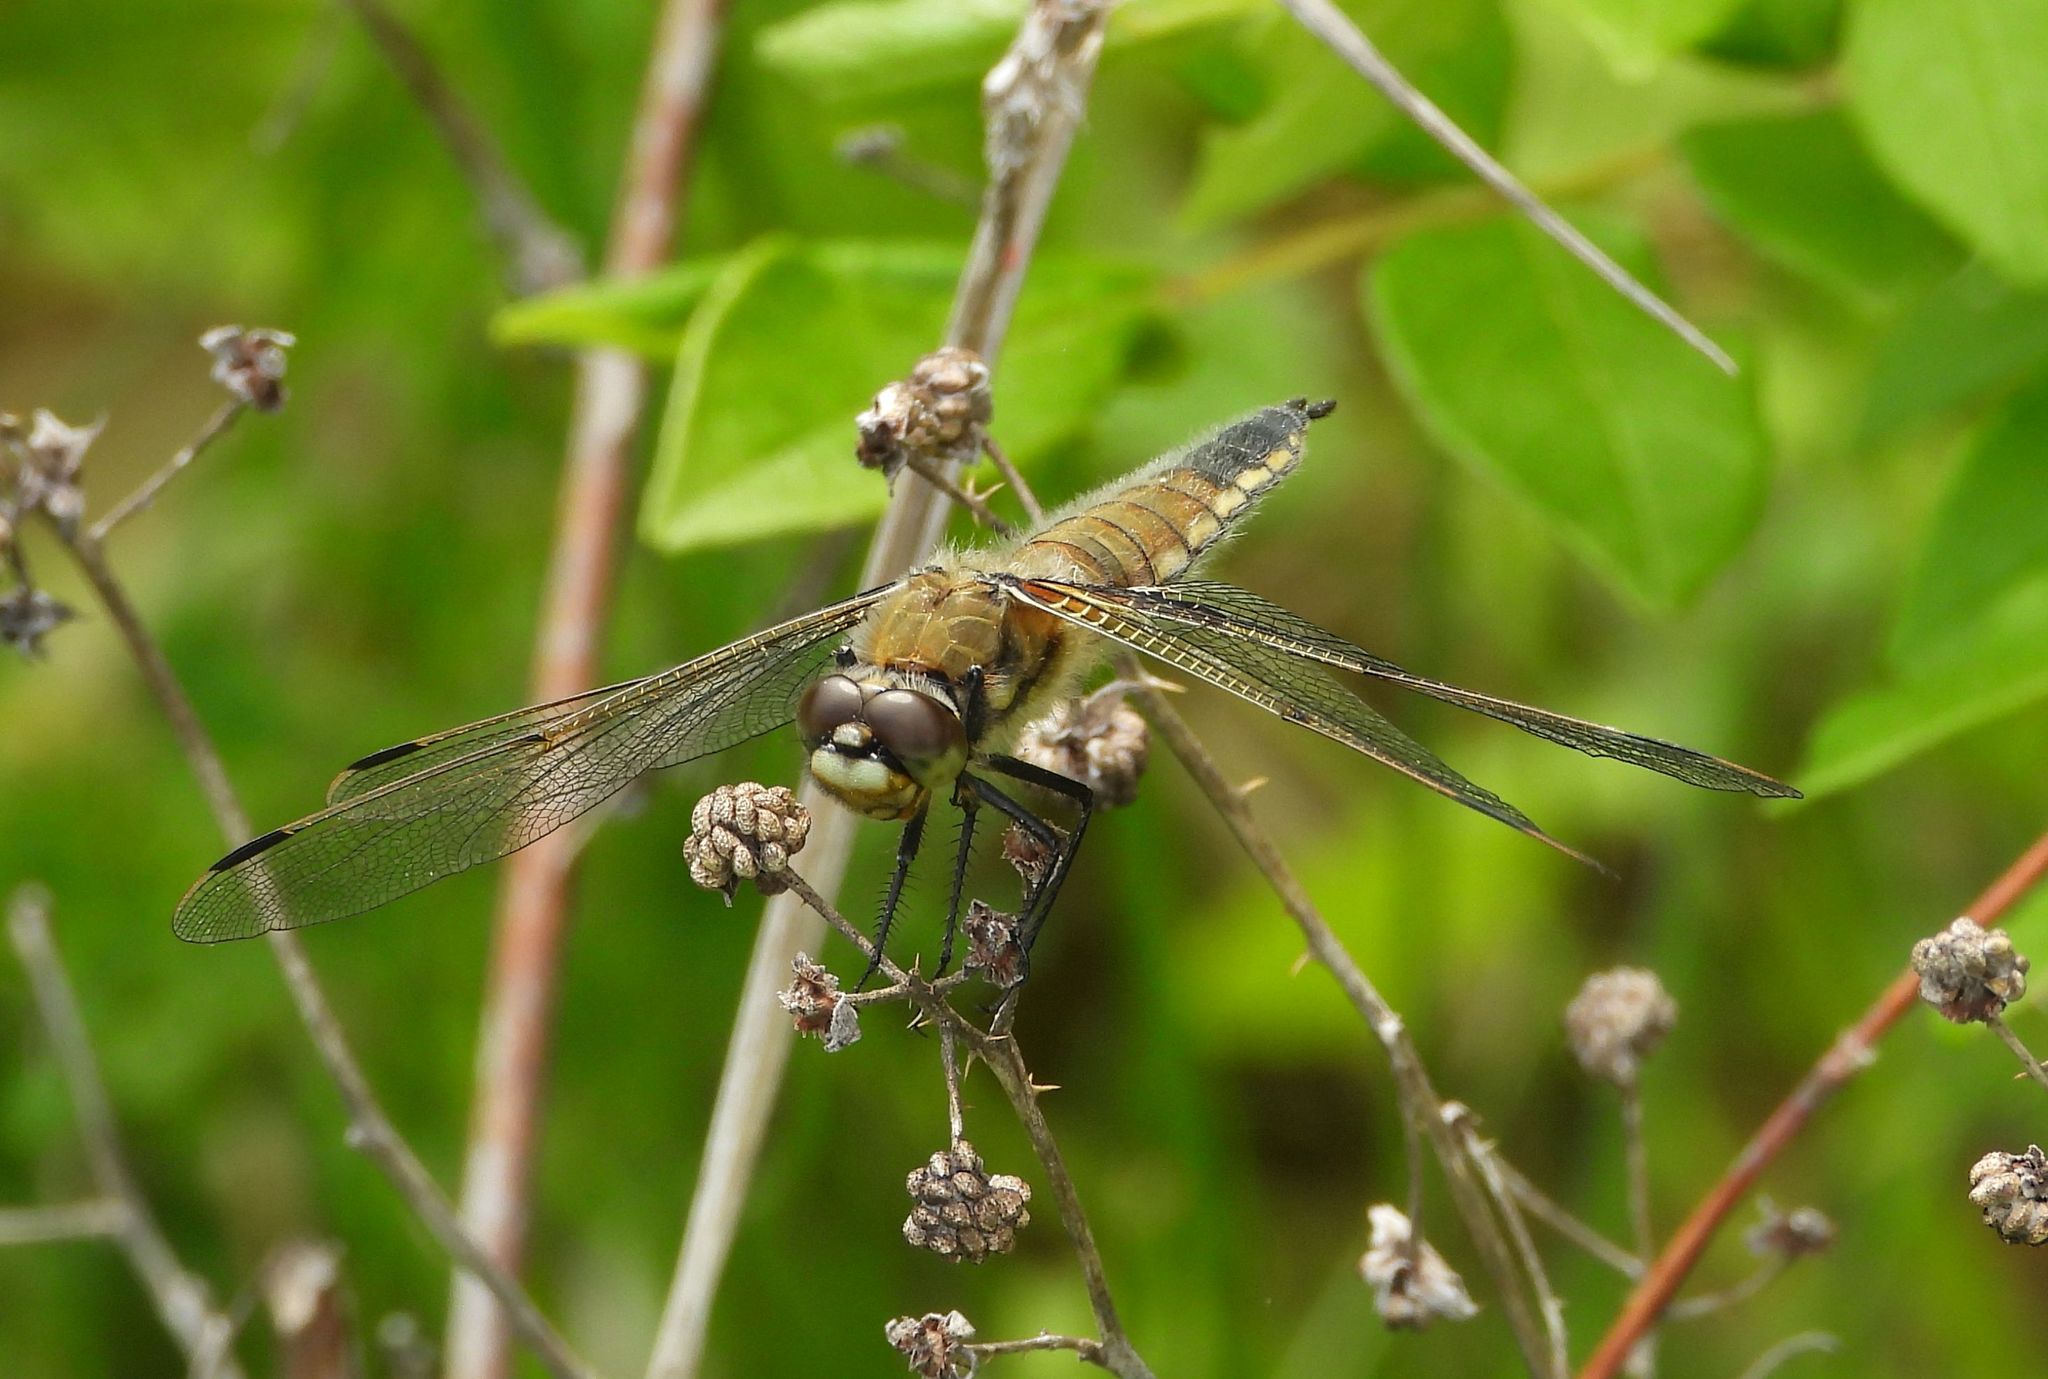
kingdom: Animalia
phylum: Arthropoda
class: Insecta
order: Odonata
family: Libellulidae
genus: Libellula
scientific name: Libellula quadrimaculata
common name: Four-spotted chaser
